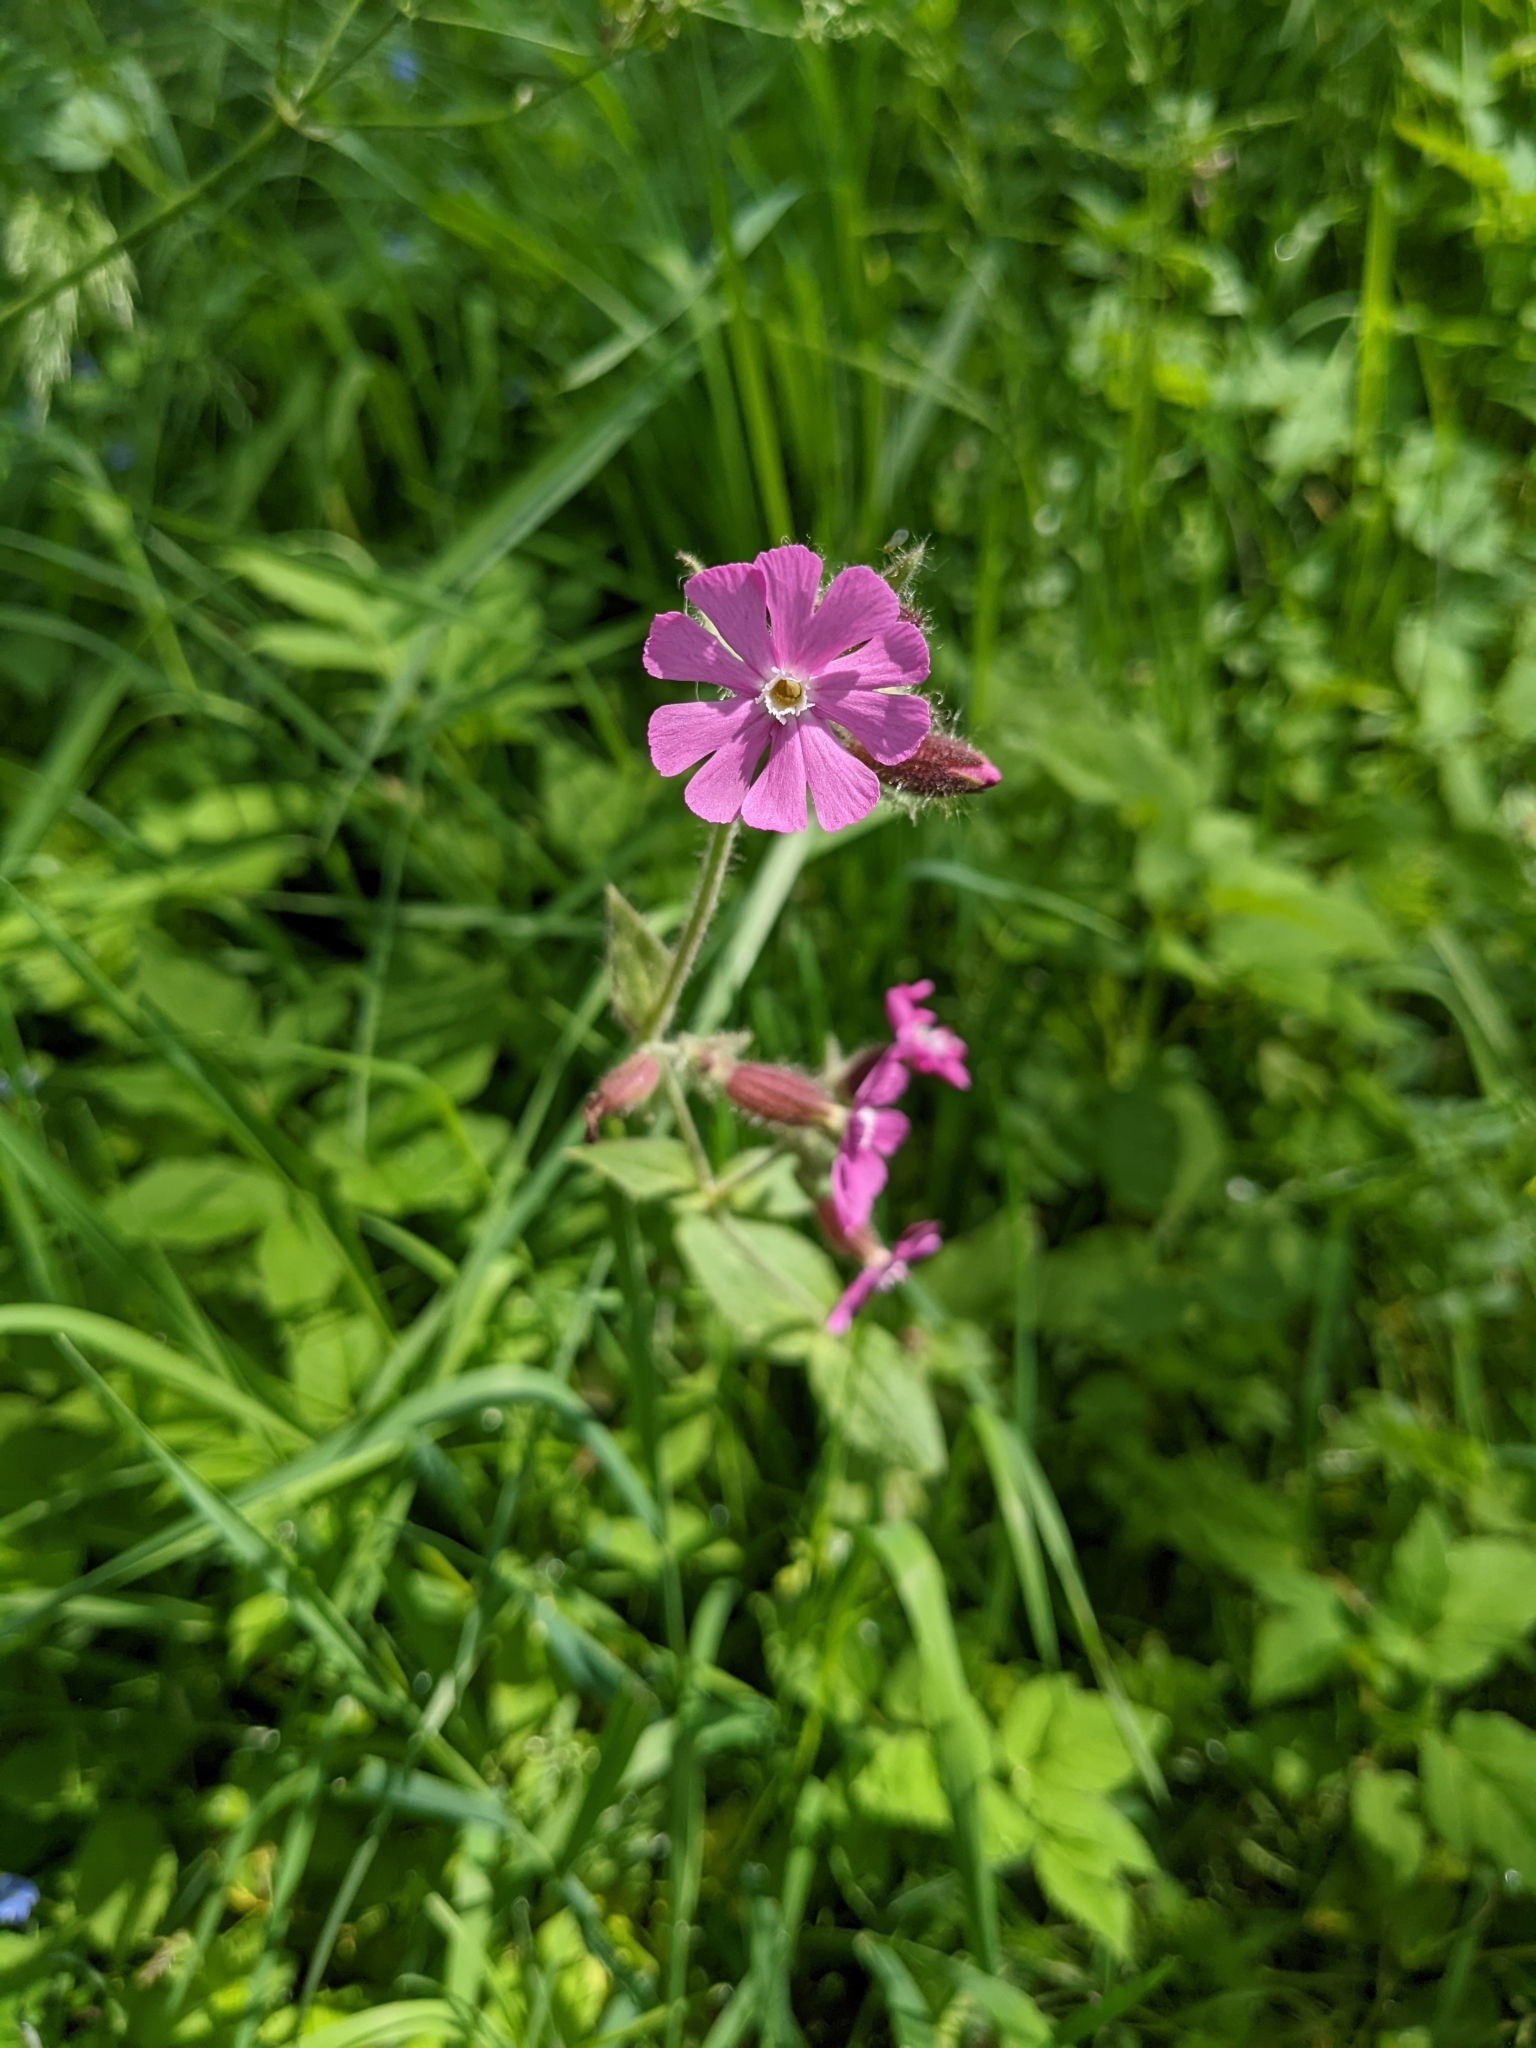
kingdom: Plantae
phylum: Tracheophyta
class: Magnoliopsida
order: Caryophyllales
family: Caryophyllaceae
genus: Silene
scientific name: Silene dioica
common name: Red campion
